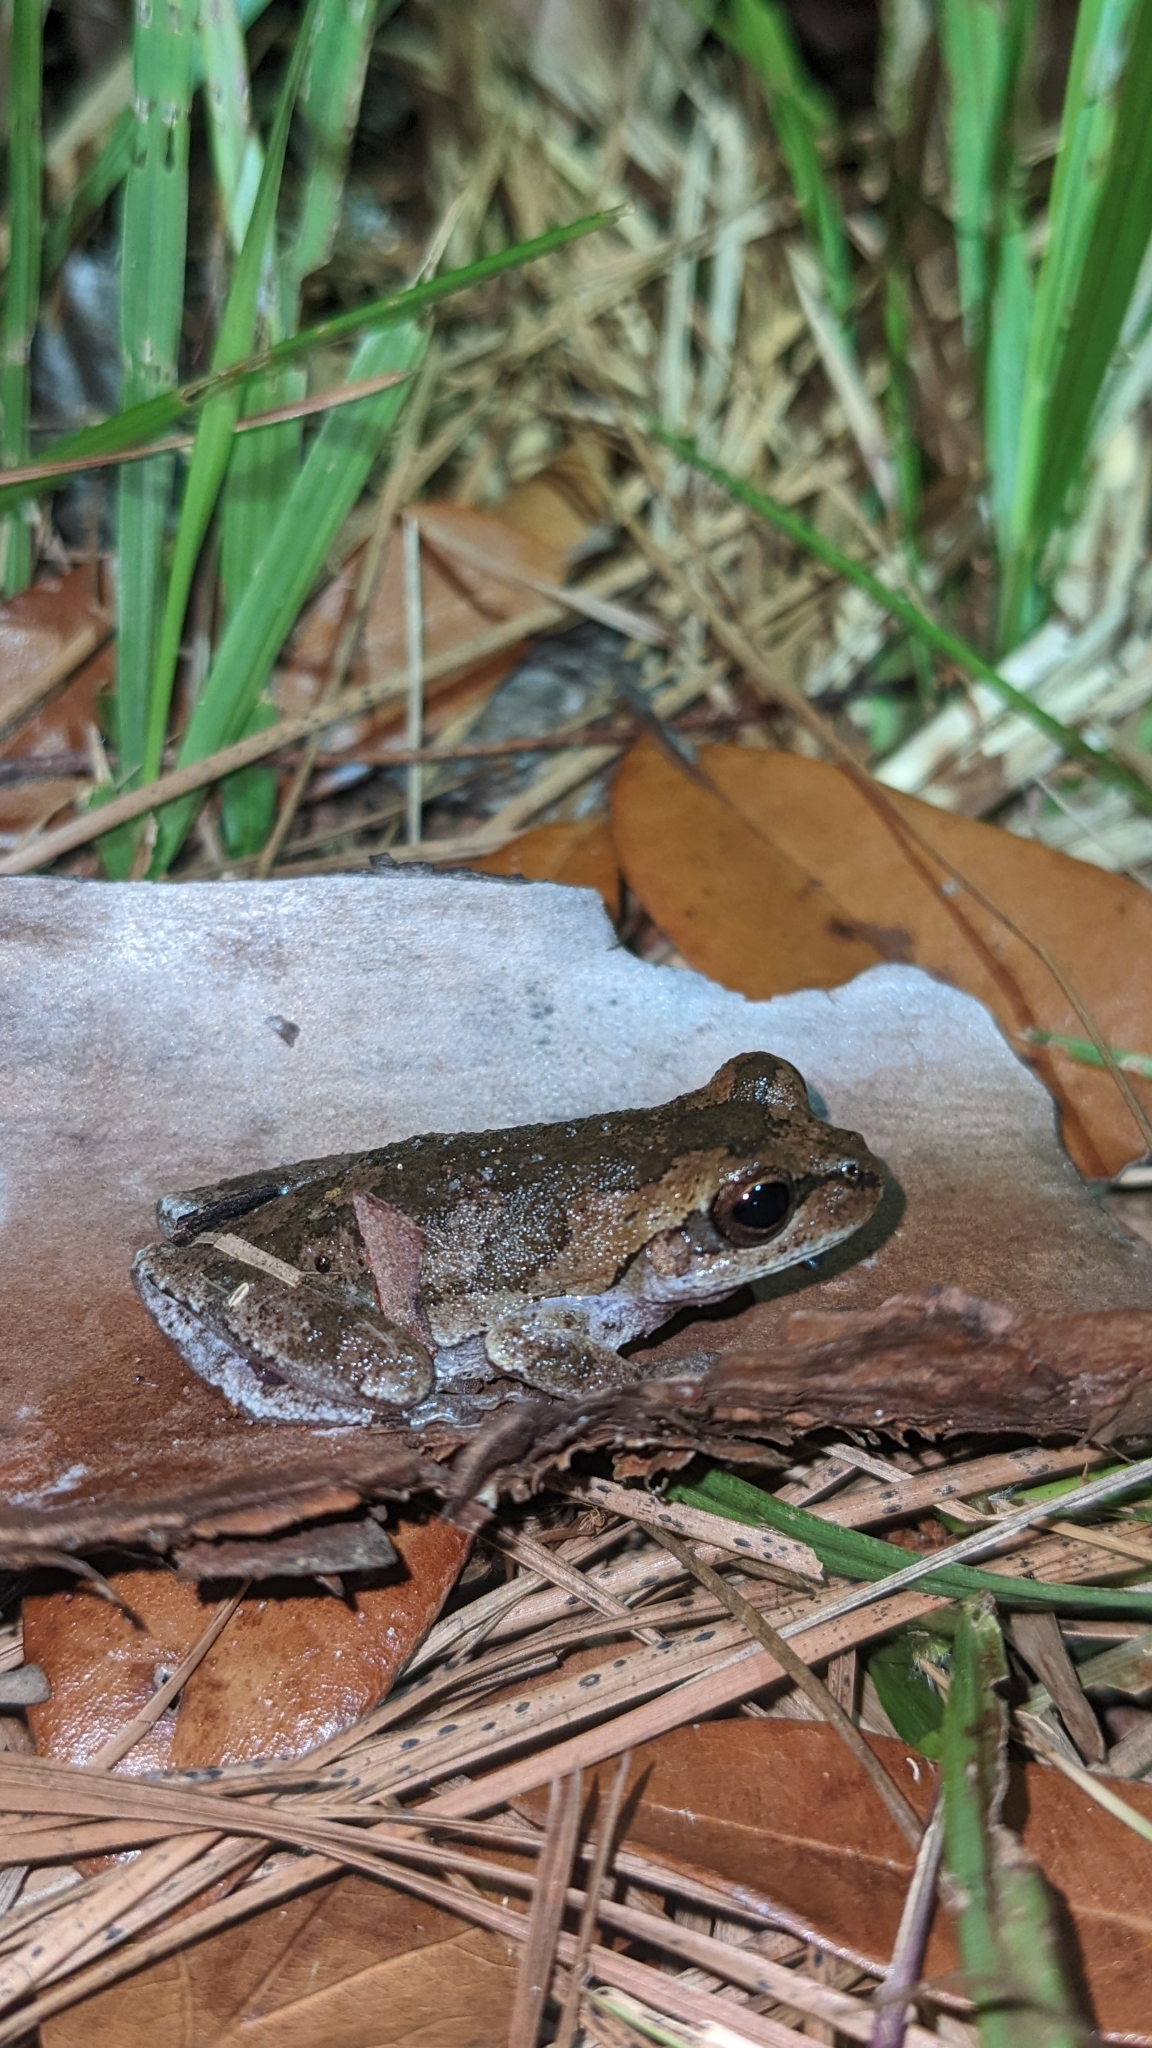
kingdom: Animalia
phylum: Chordata
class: Amphibia
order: Anura
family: Hylidae
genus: Hyla
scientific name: Hyla femoralis
